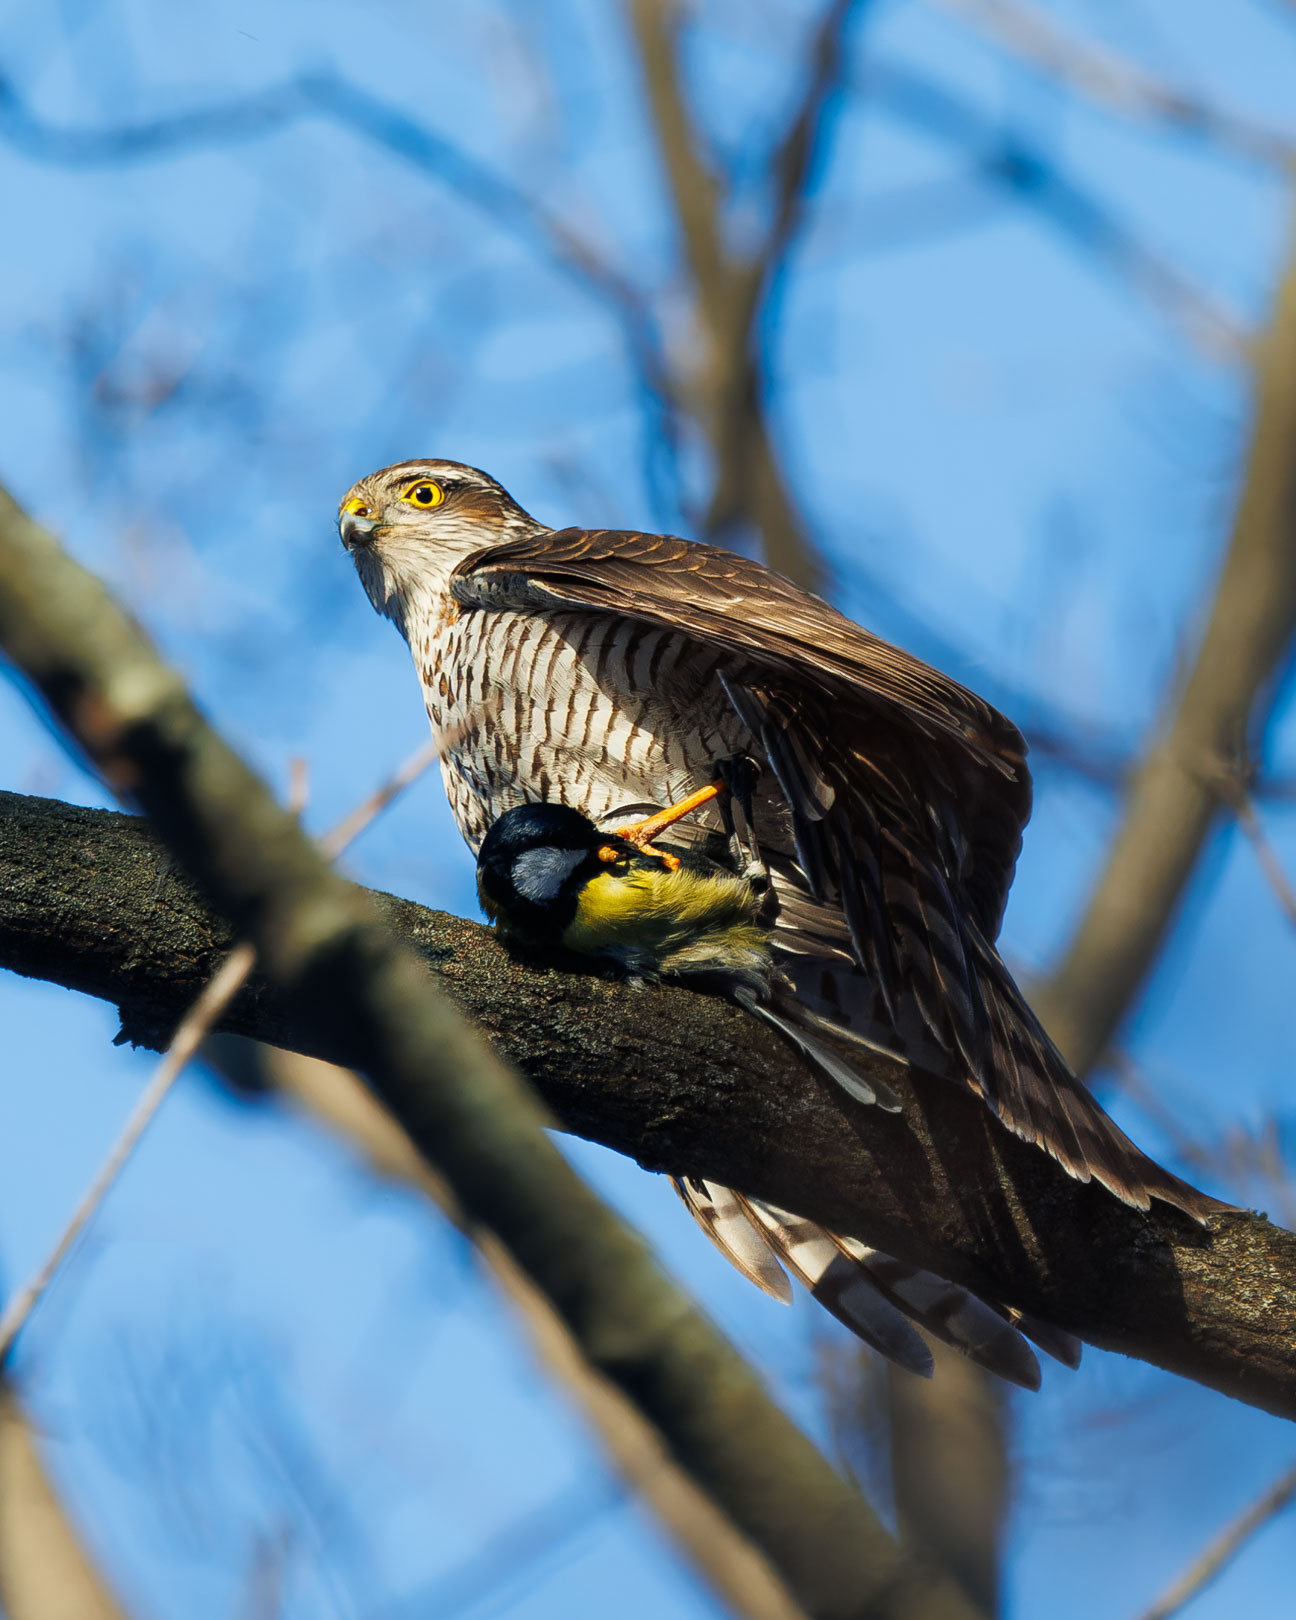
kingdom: Animalia
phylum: Chordata
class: Aves
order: Accipitriformes
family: Accipitridae
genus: Accipiter
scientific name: Accipiter nisus
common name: Eurasian sparrowhawk
